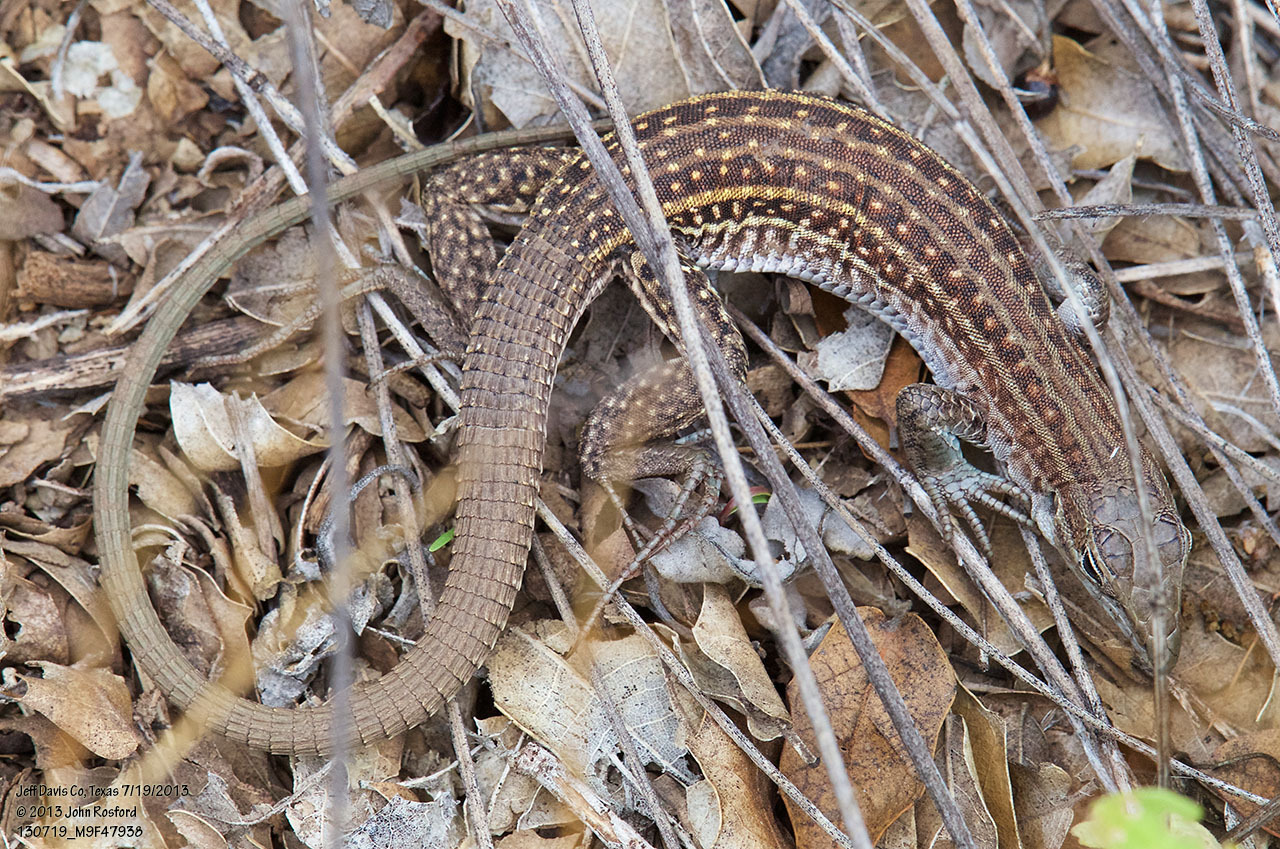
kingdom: Animalia
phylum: Chordata
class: Squamata
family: Teiidae
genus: Aspidoscelis
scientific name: Aspidoscelis exsanguis
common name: Chihuahuan spotted whiptail
